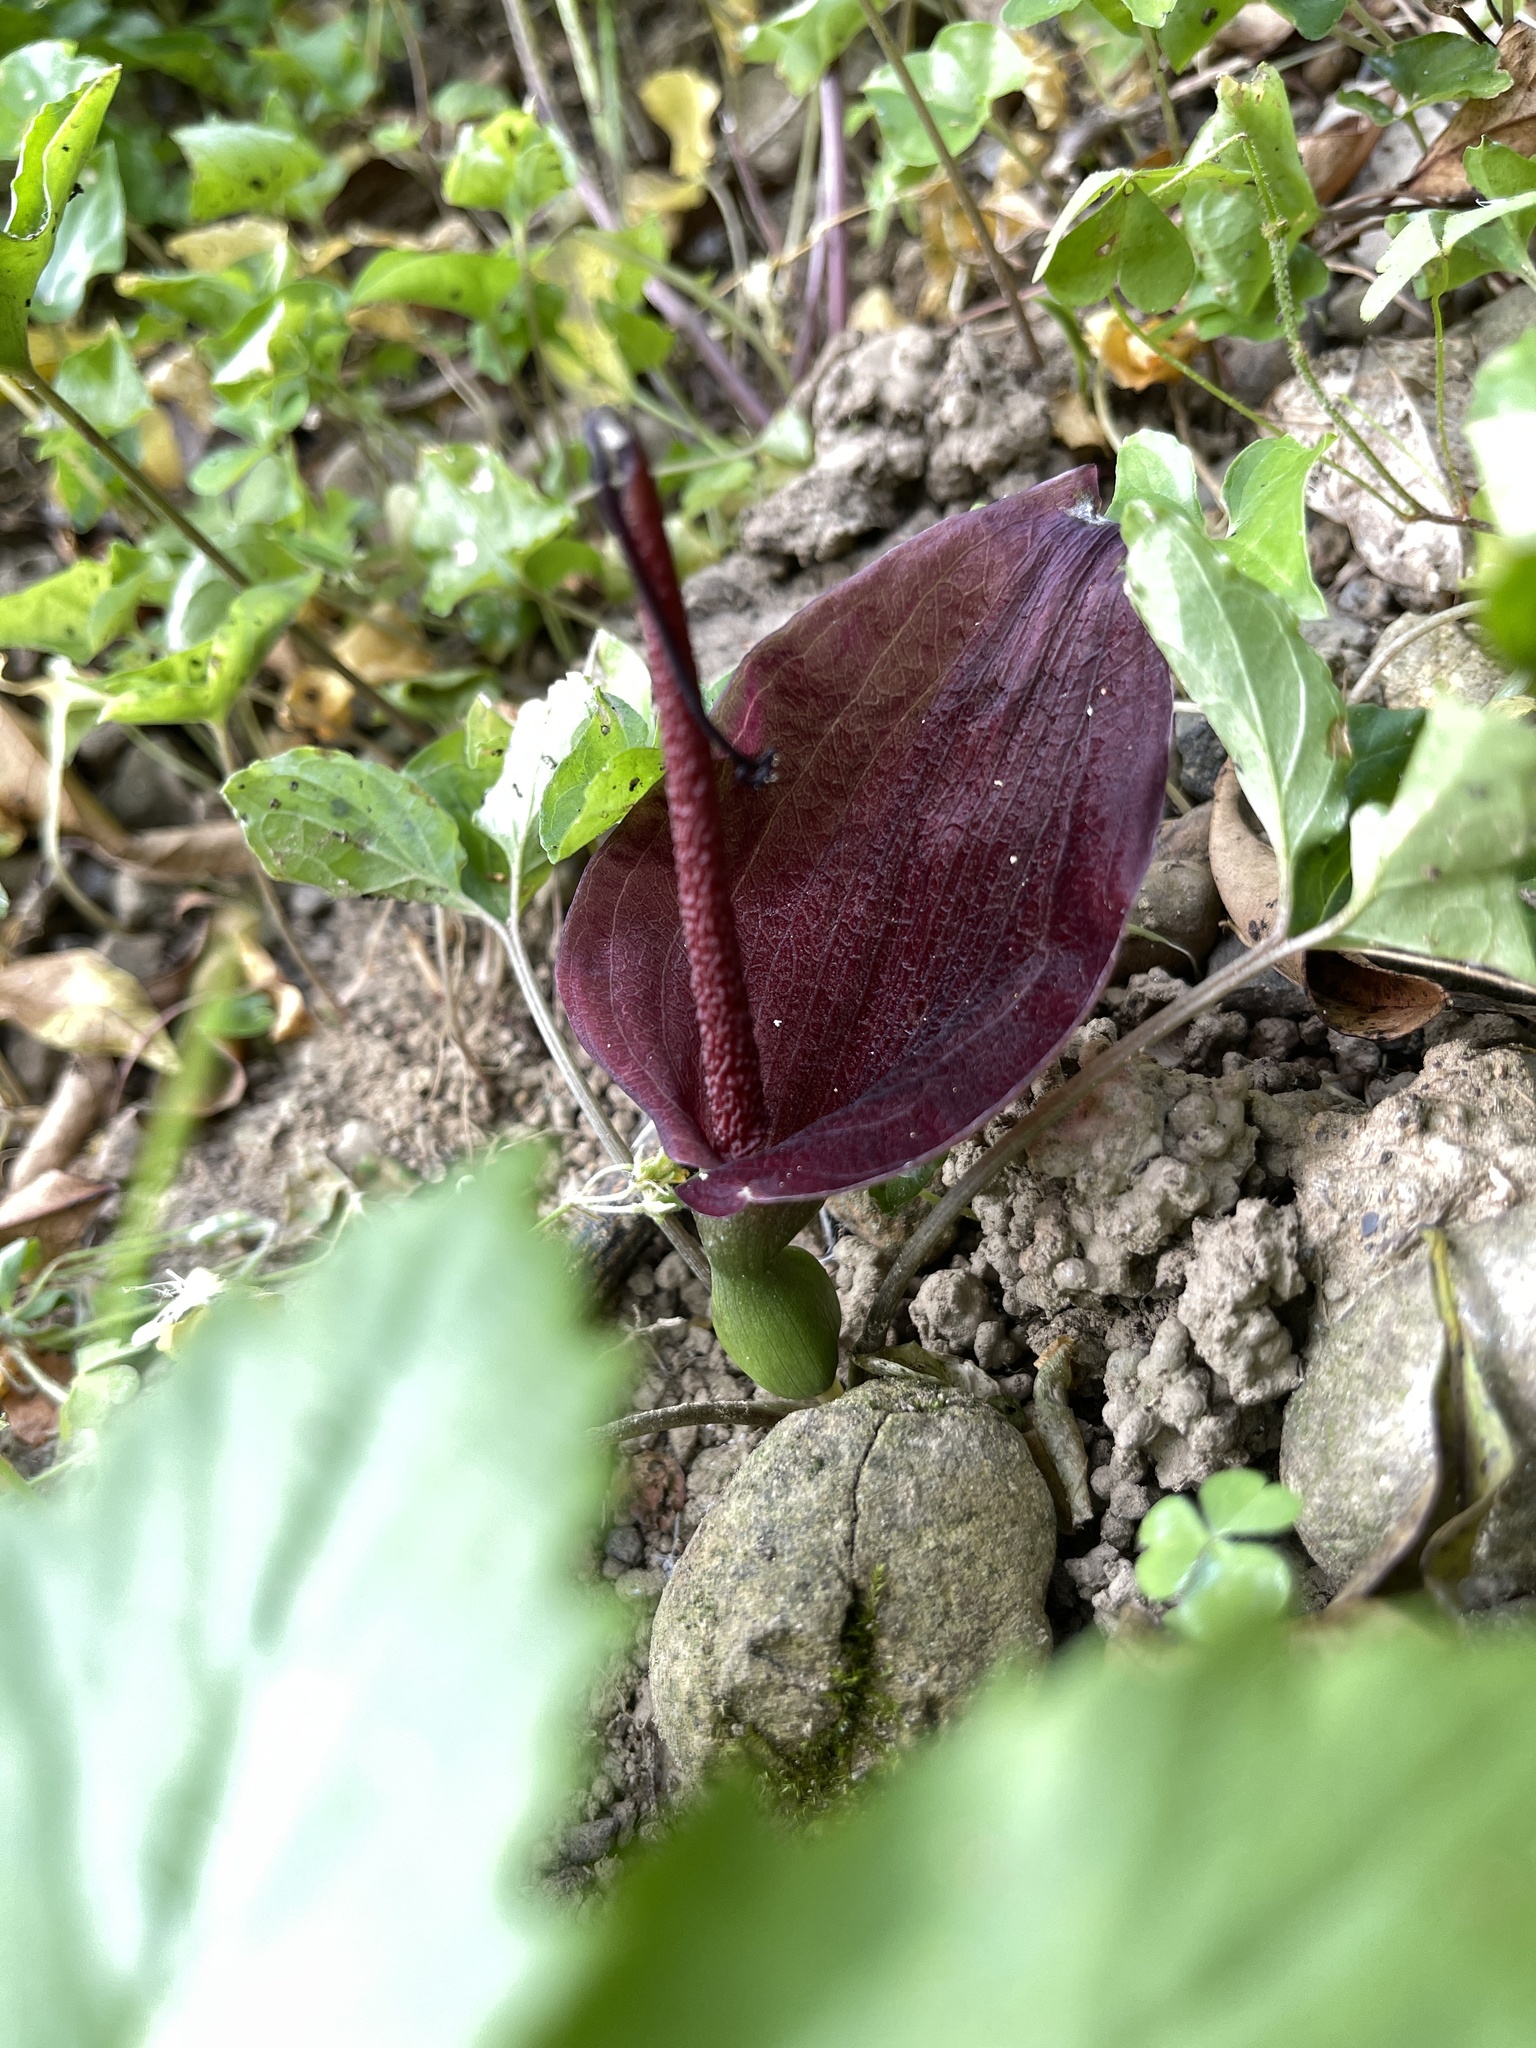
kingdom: Plantae
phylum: Tracheophyta
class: Liliopsida
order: Alismatales
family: Araceae
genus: Typhonium
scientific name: Typhonium blumei
